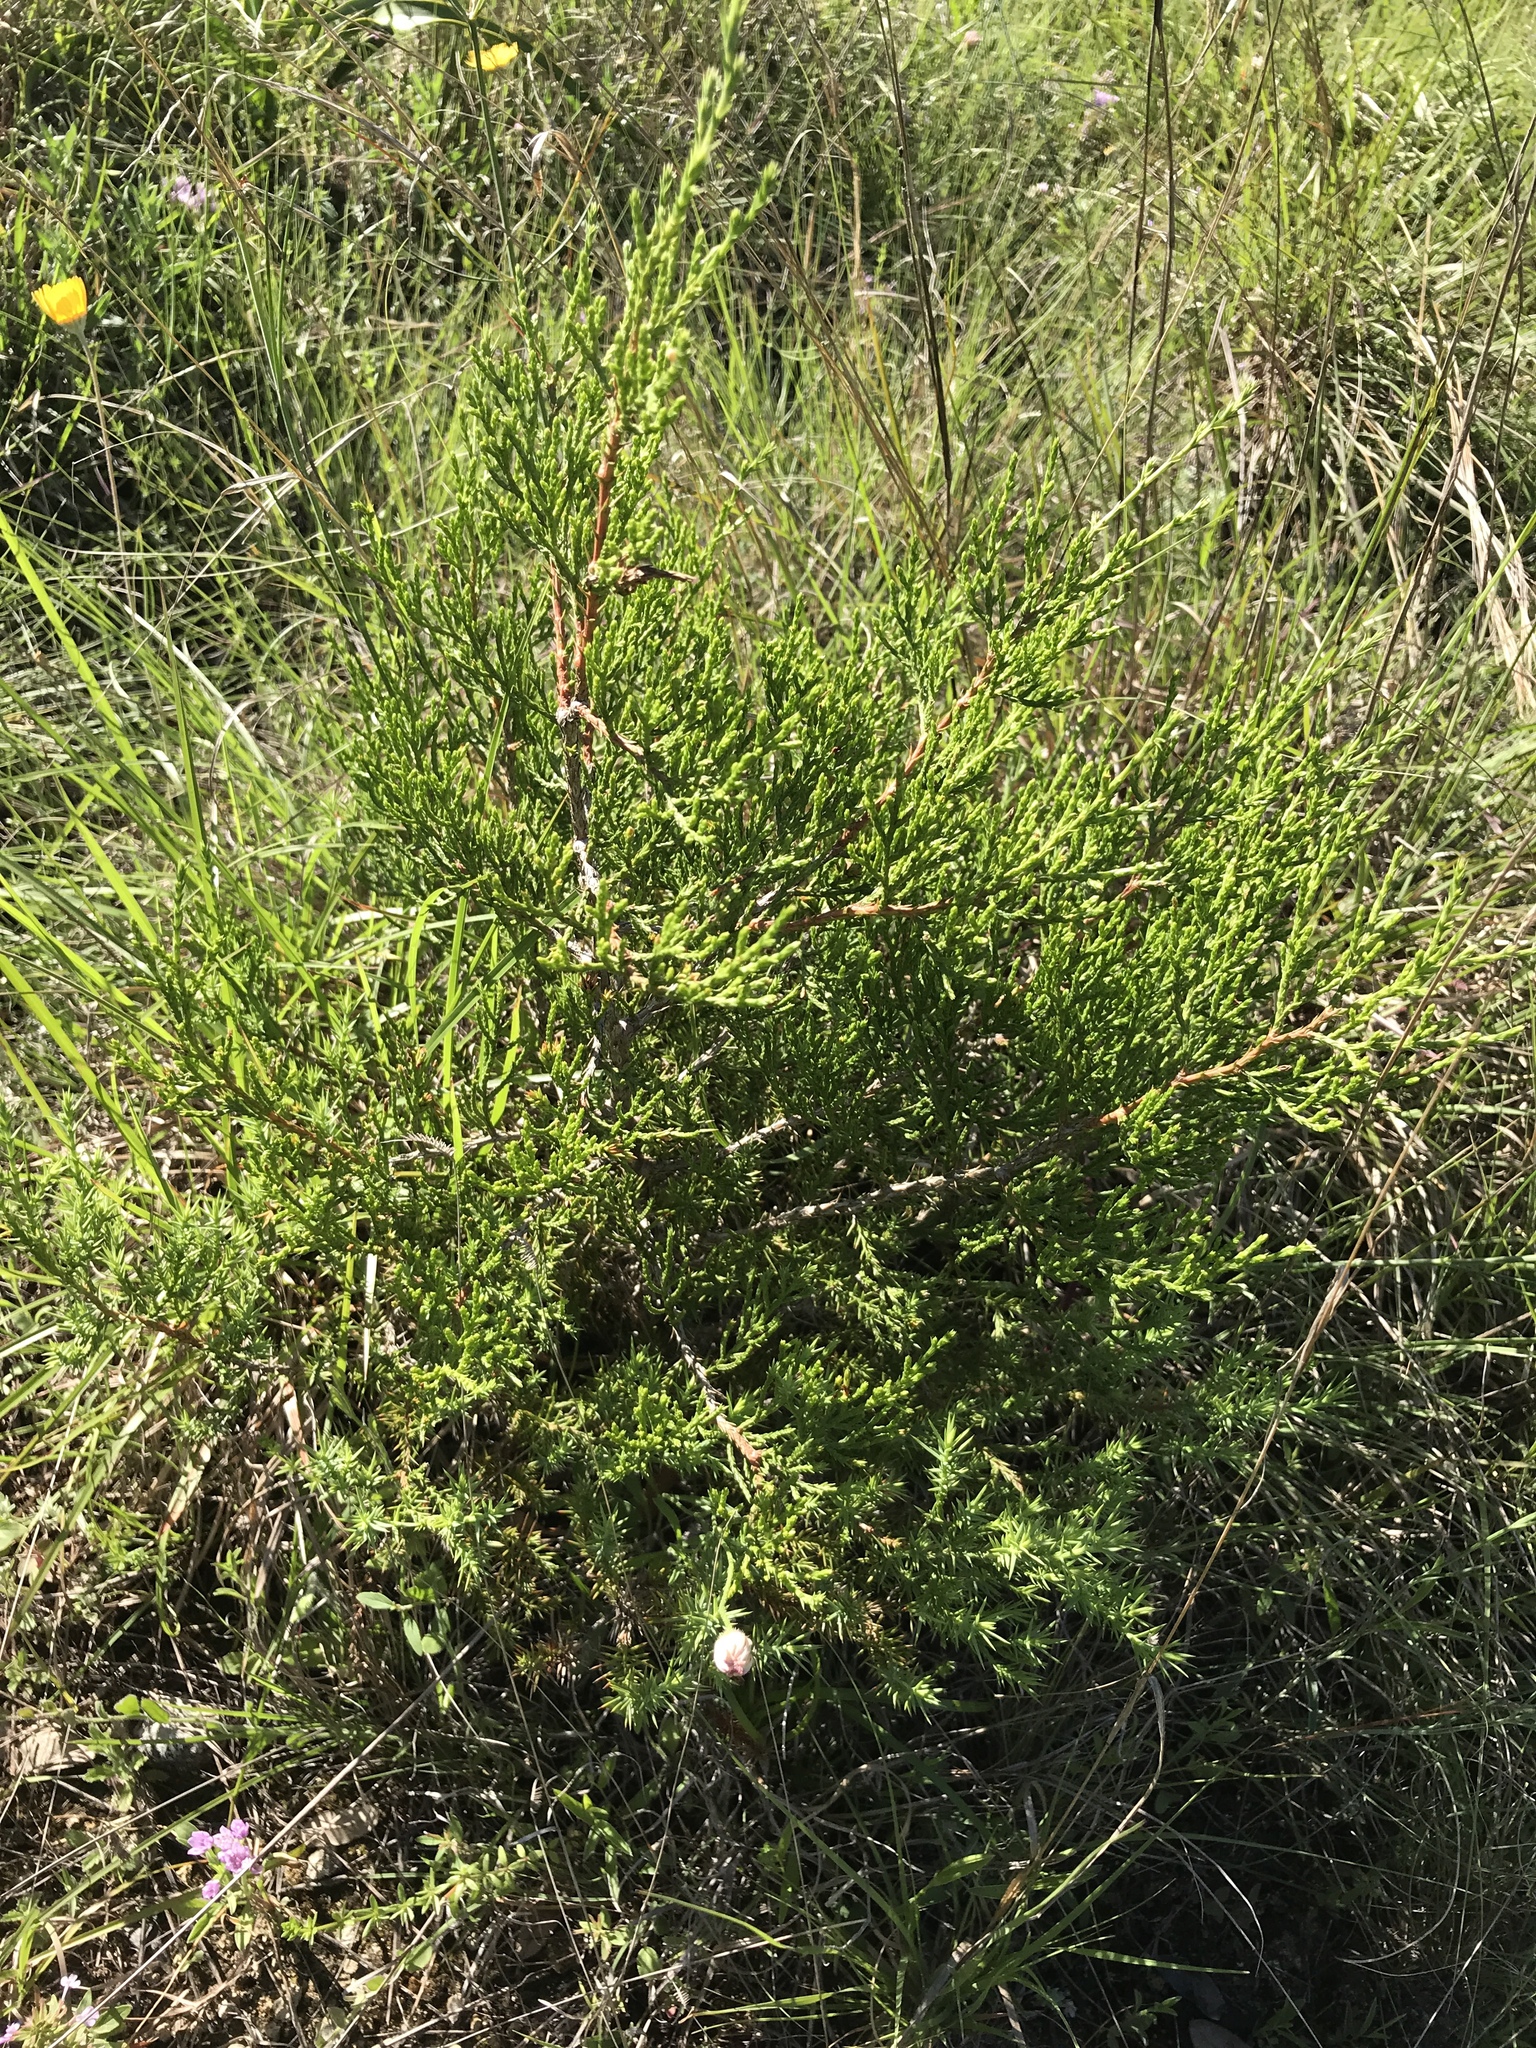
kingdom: Plantae
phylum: Tracheophyta
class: Pinopsida
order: Pinales
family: Cupressaceae
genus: Juniperus
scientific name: Juniperus ashei
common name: Mexican juniper
